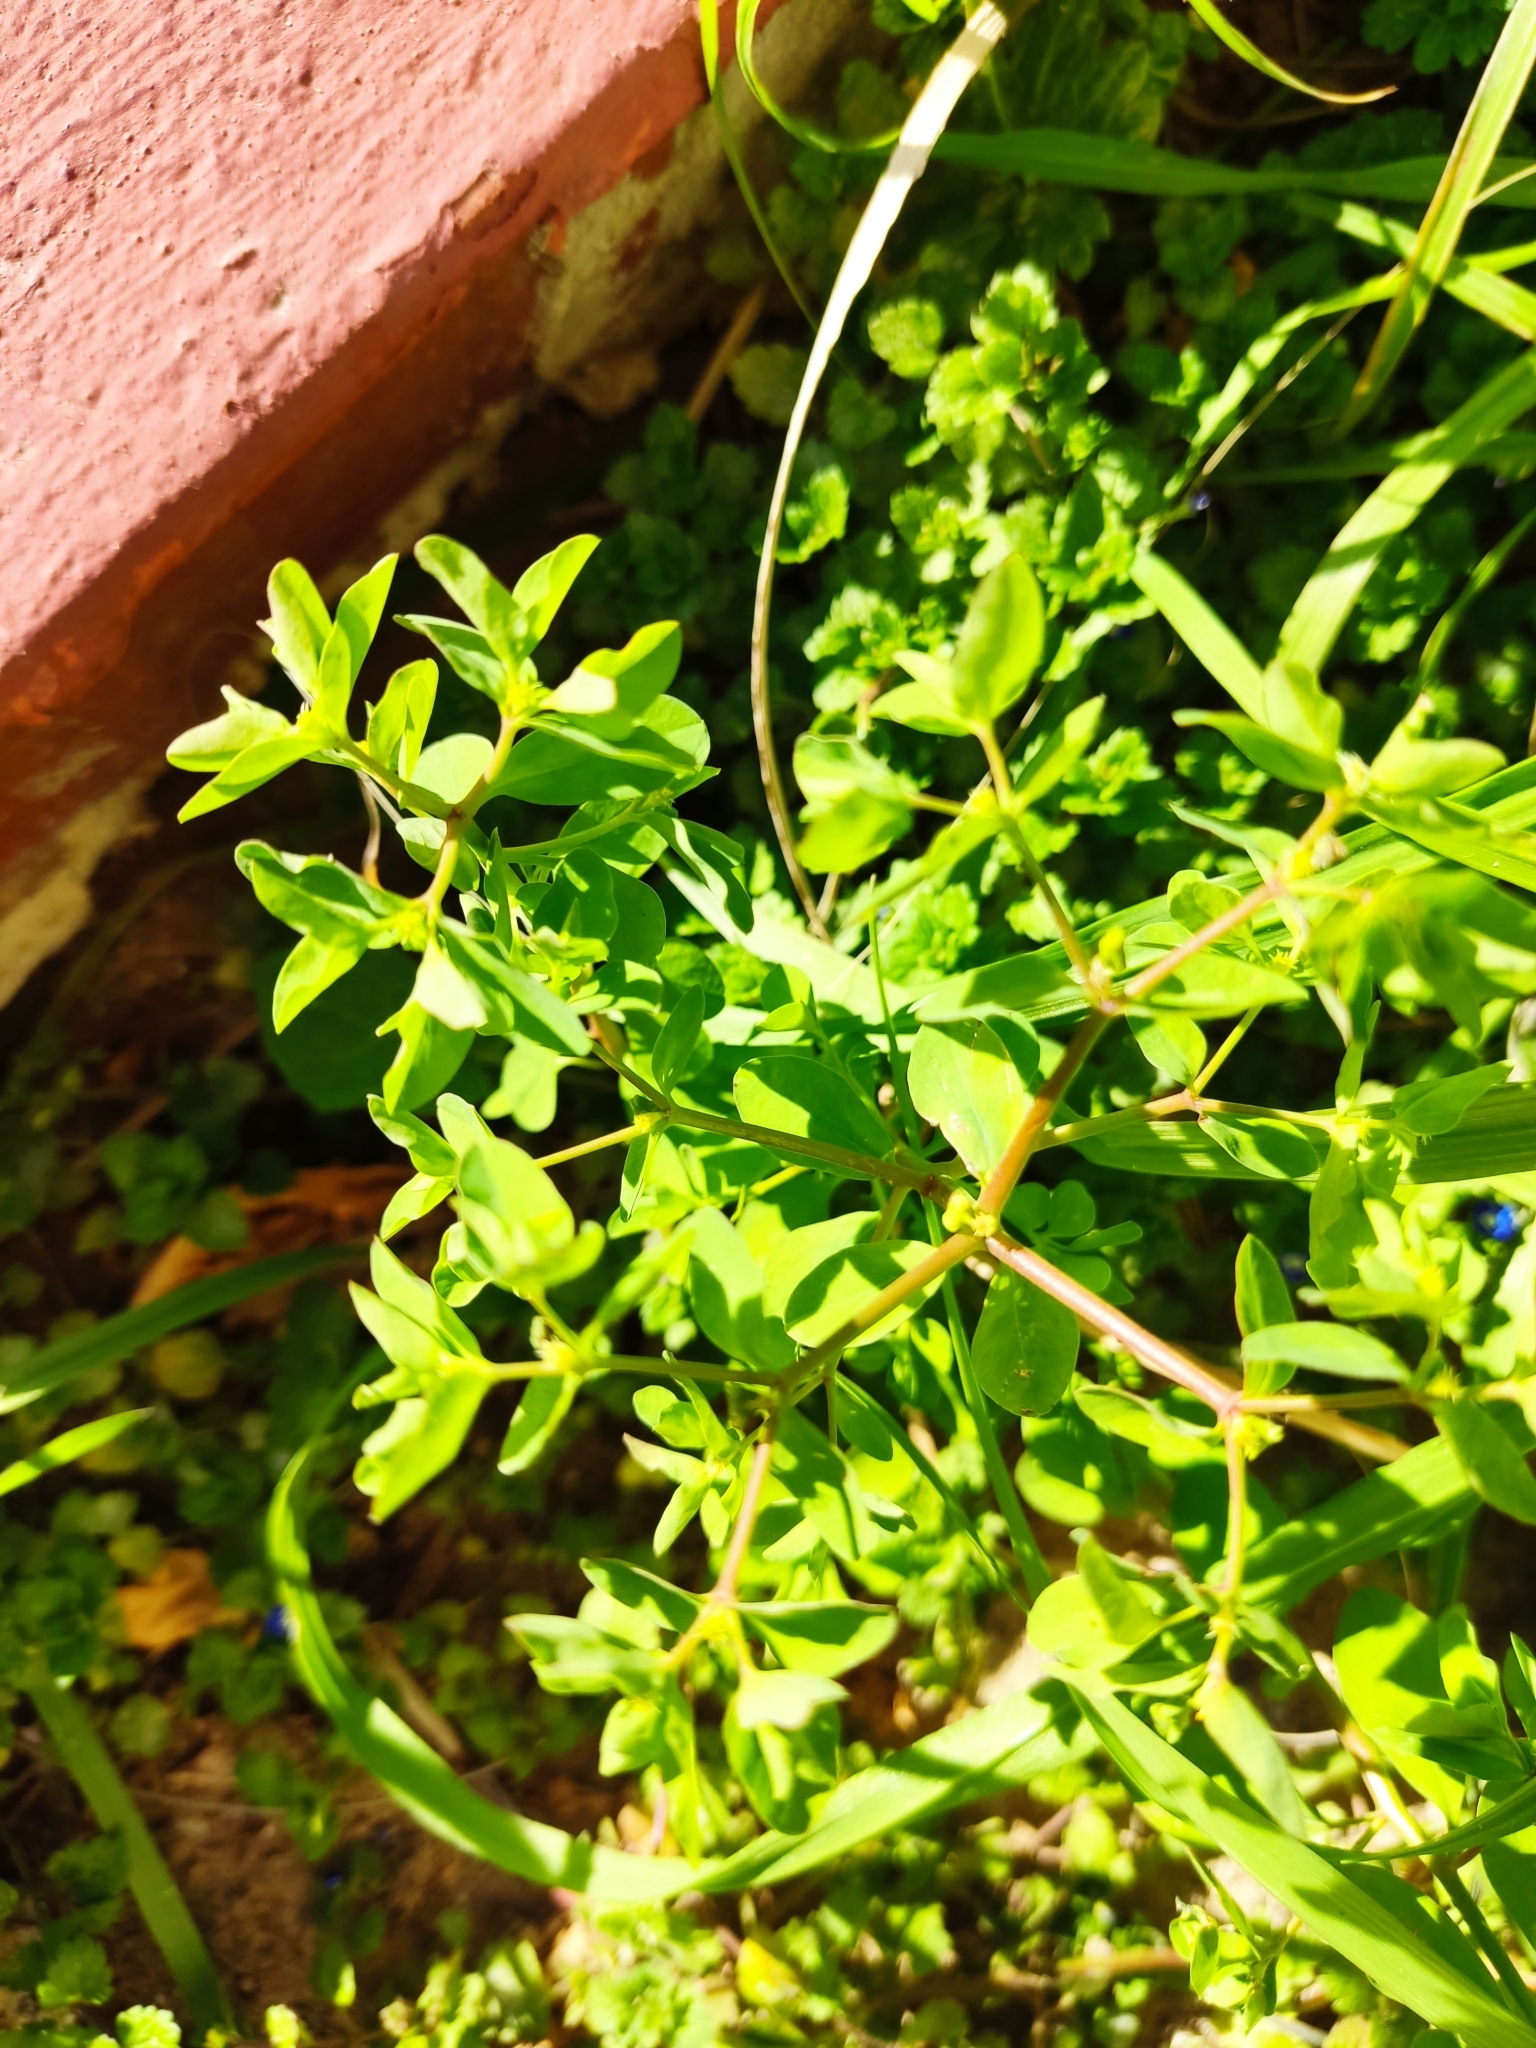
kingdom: Plantae
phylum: Tracheophyta
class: Magnoliopsida
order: Malpighiales
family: Euphorbiaceae
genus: Euphorbia
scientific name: Euphorbia peplus
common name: Petty spurge
